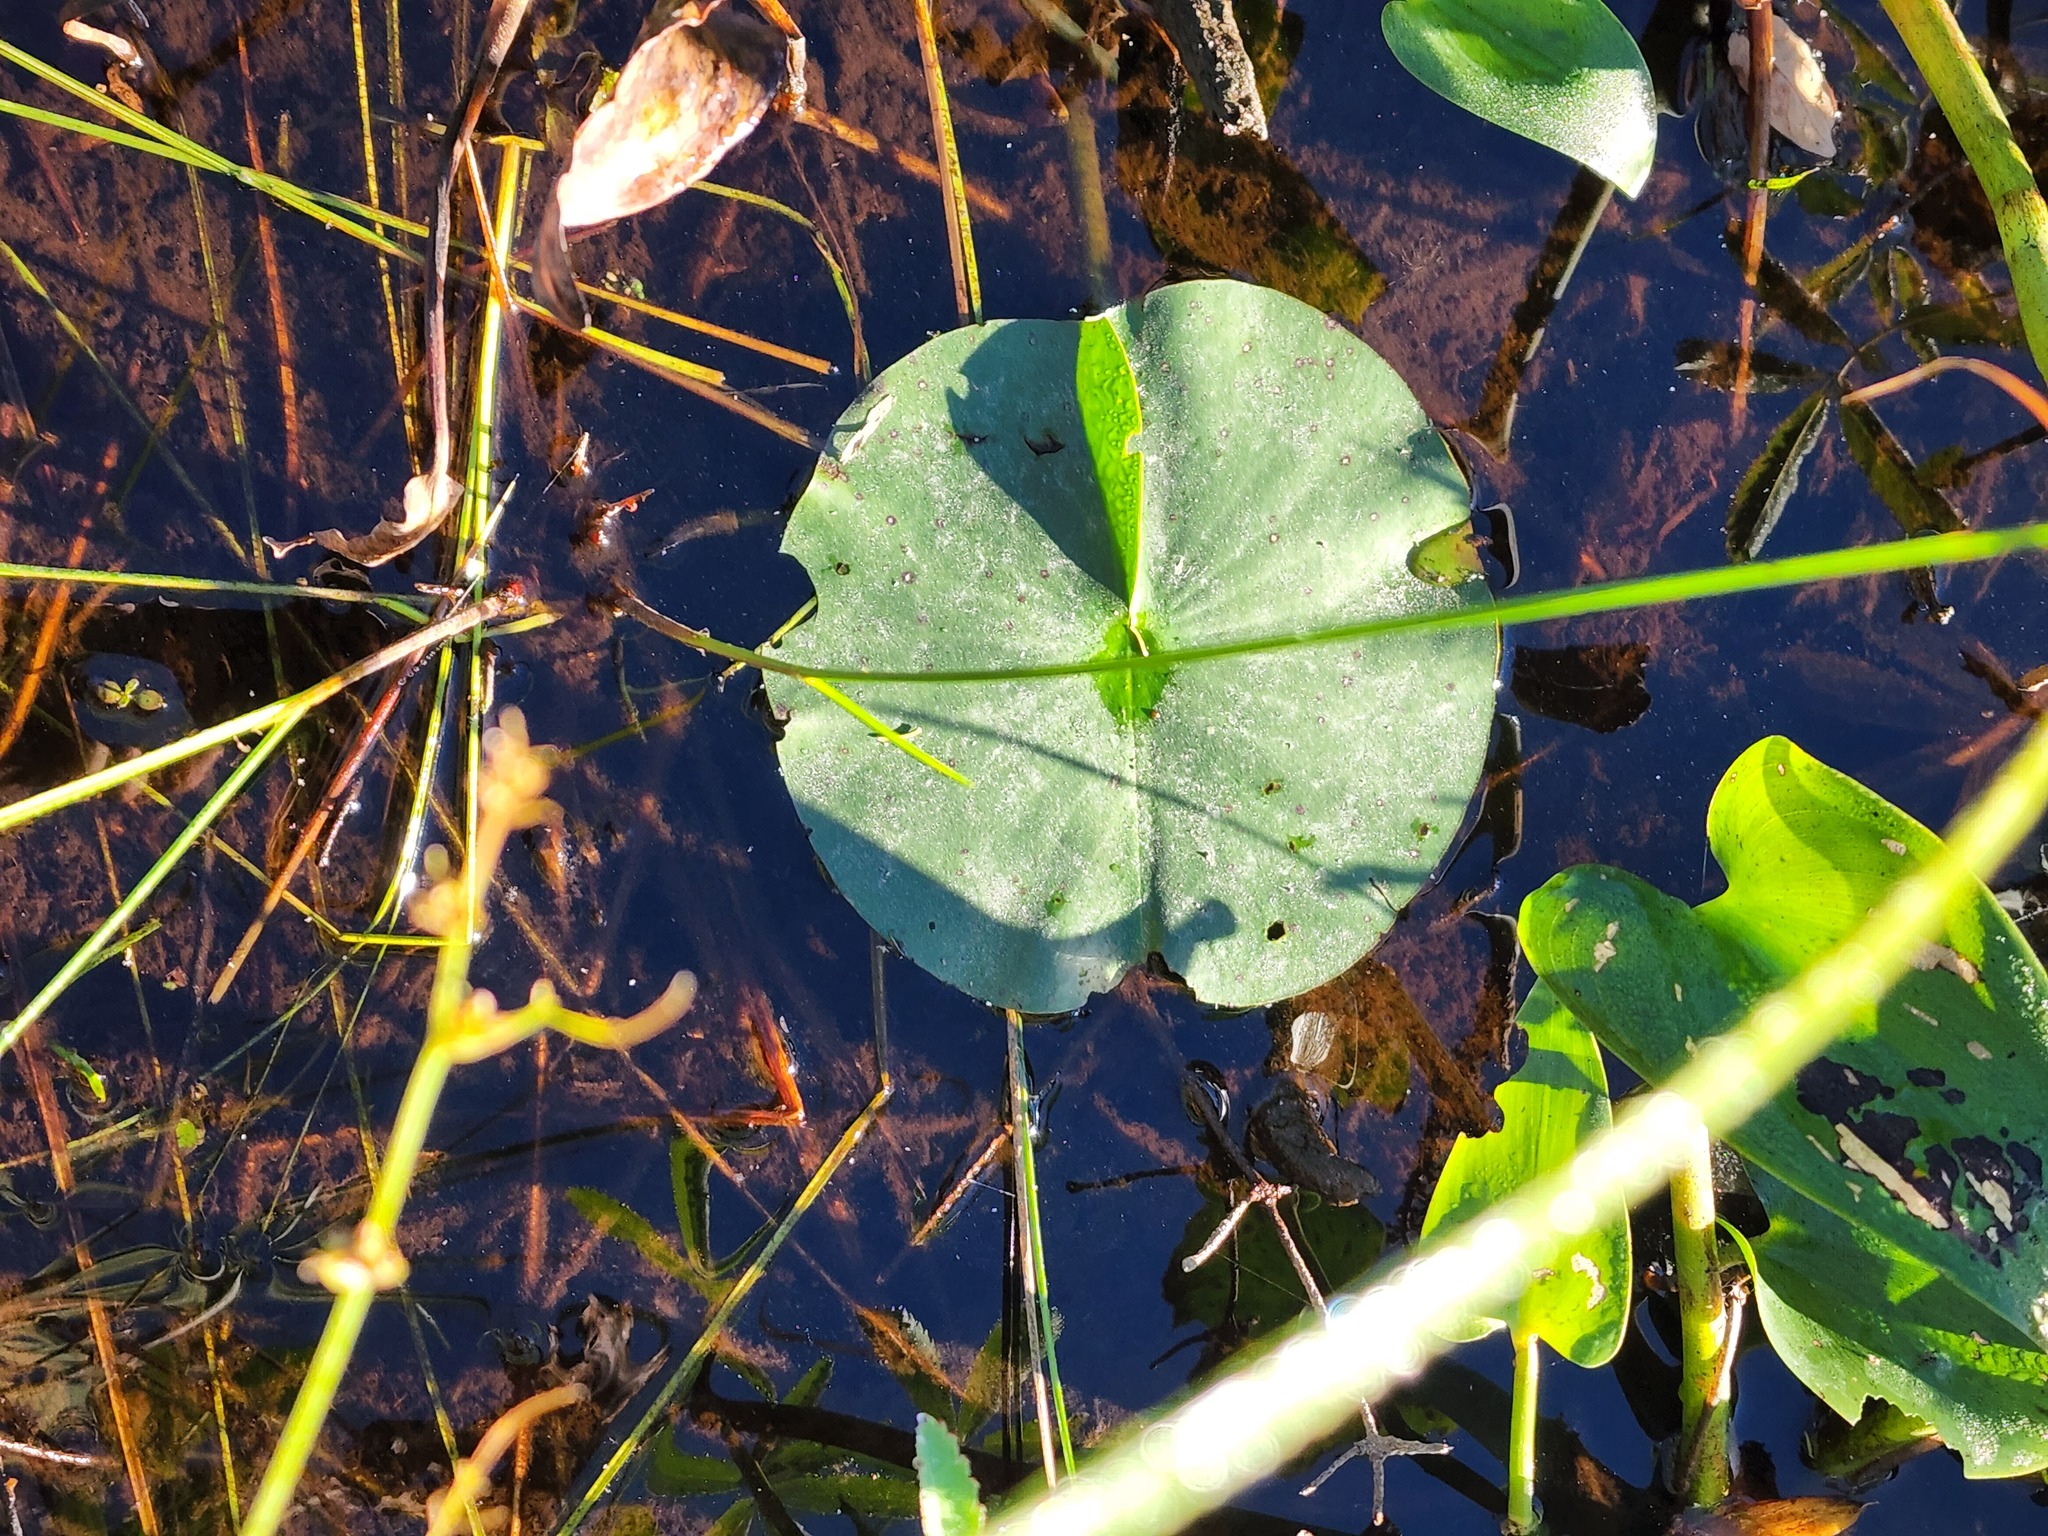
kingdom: Plantae
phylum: Tracheophyta
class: Magnoliopsida
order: Nymphaeales
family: Nymphaeaceae
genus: Nymphaea
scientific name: Nymphaea odorata
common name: Fragrant water-lily
